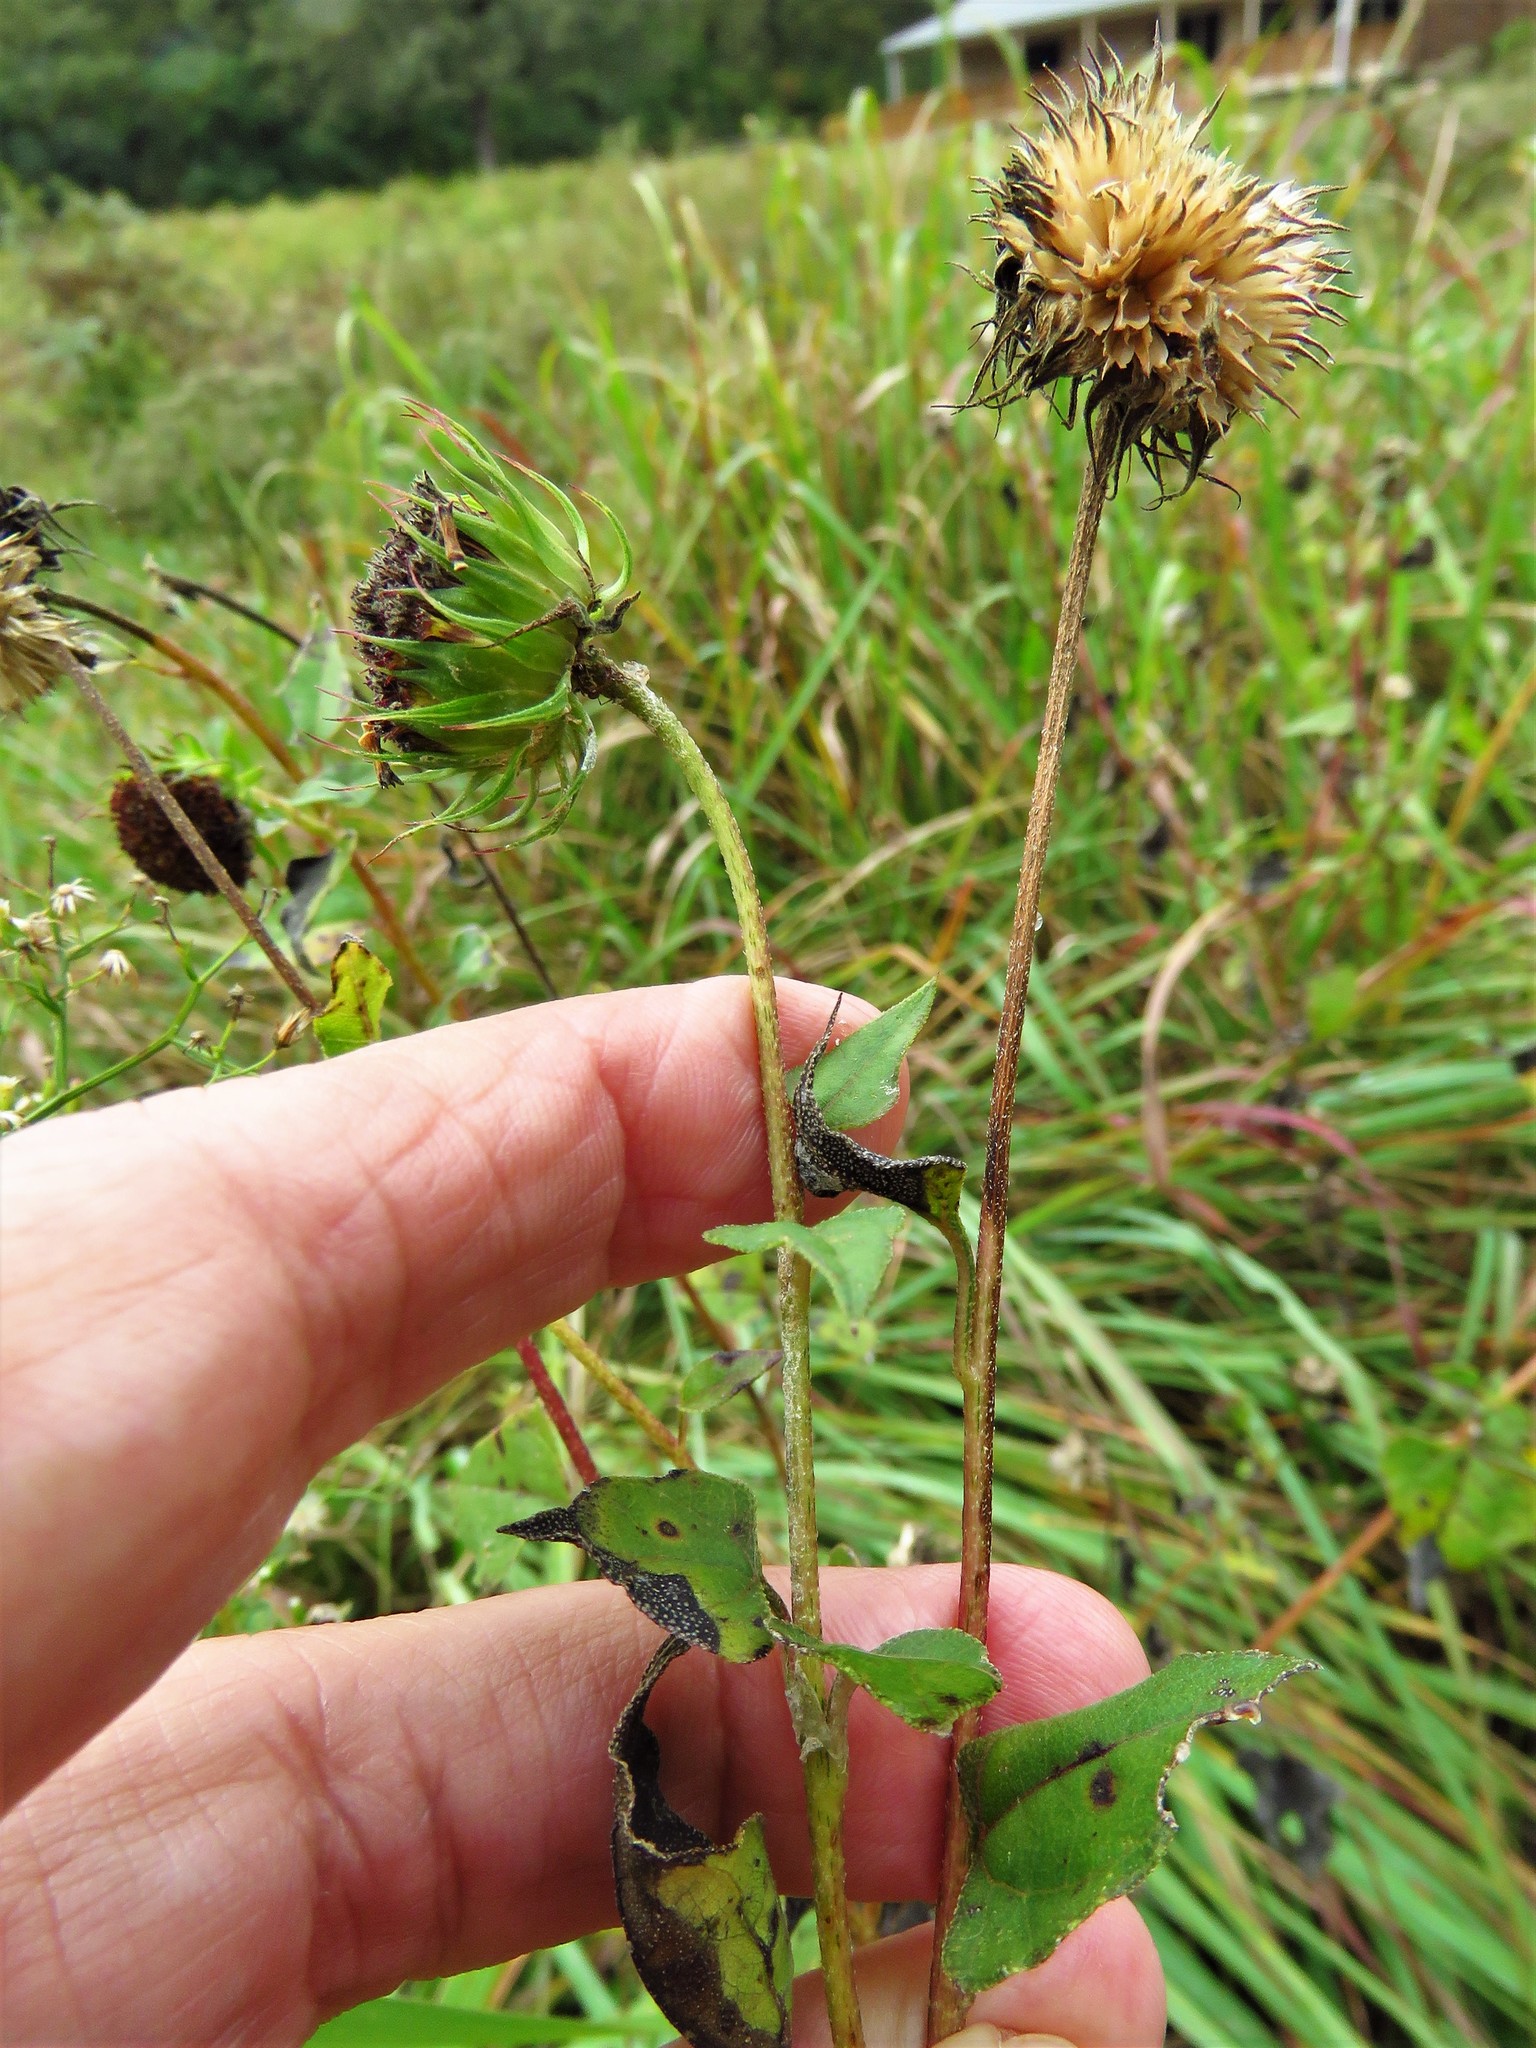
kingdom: Plantae
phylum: Tracheophyta
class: Magnoliopsida
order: Asterales
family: Asteraceae
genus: Helianthus
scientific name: Helianthus debilis
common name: Weak sunflower
